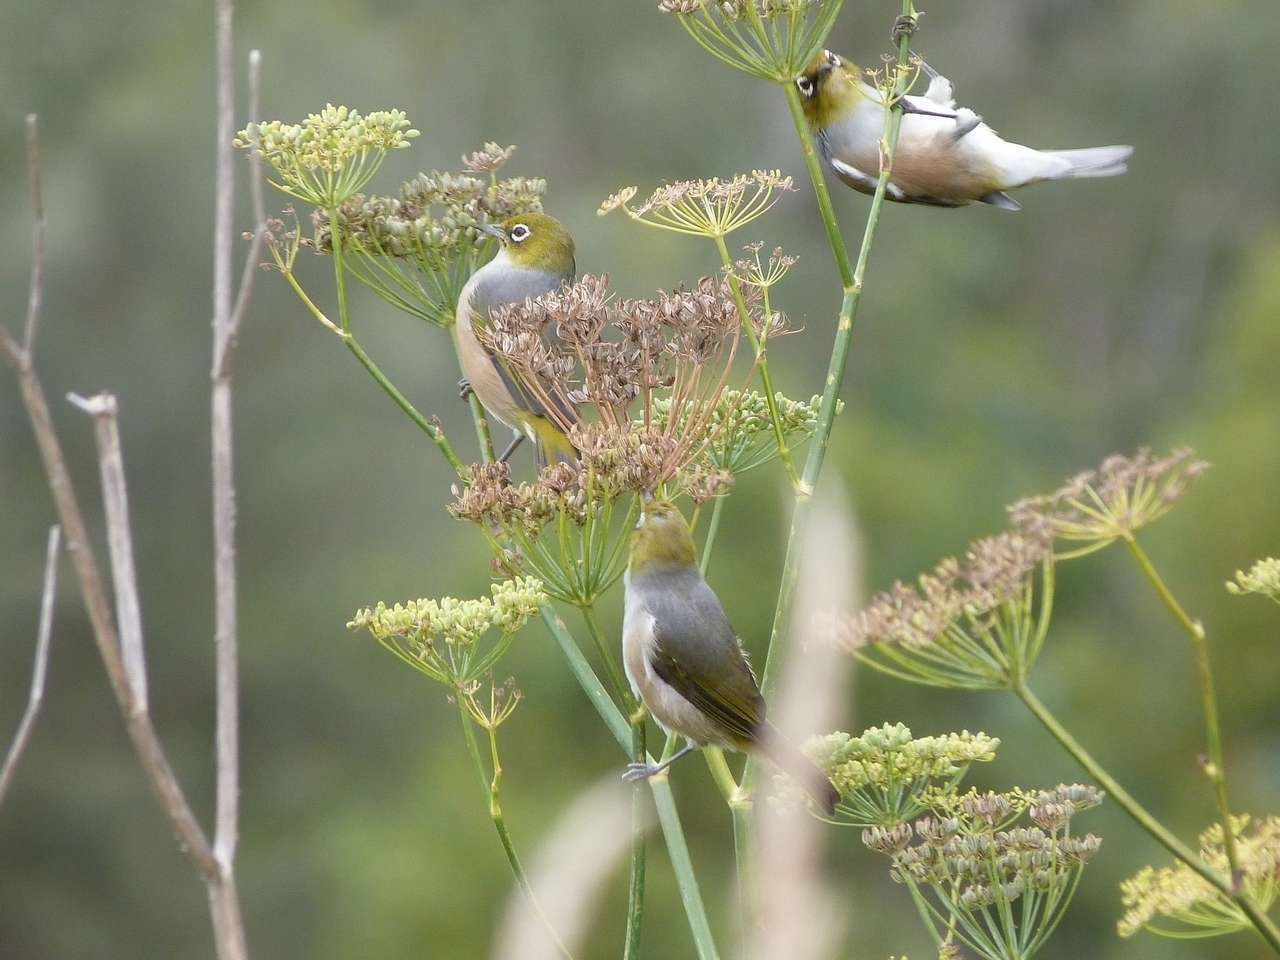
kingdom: Plantae
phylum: Tracheophyta
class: Magnoliopsida
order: Apiales
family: Apiaceae
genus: Foeniculum
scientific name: Foeniculum vulgare
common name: Fennel
